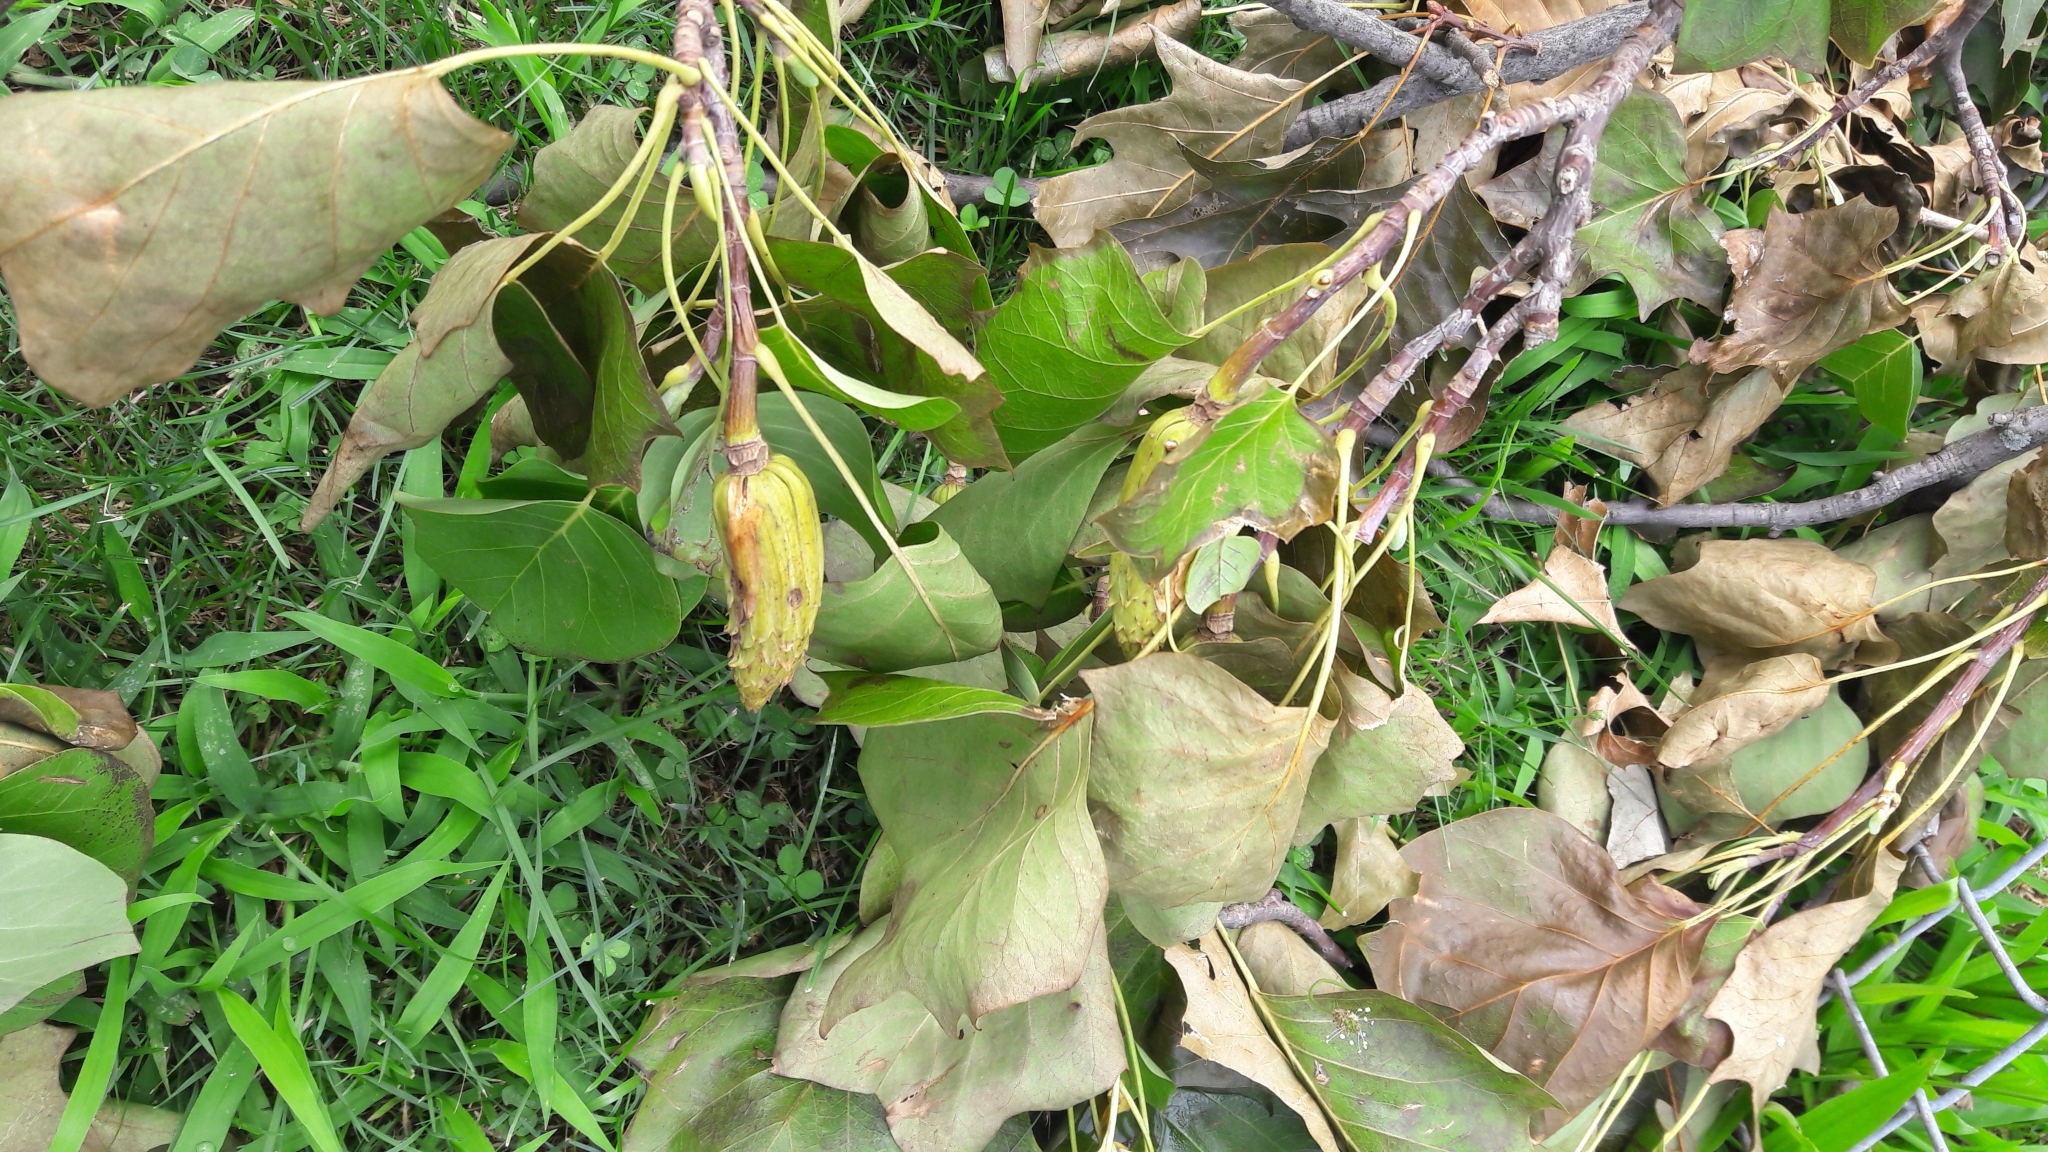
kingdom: Plantae
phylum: Tracheophyta
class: Magnoliopsida
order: Magnoliales
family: Magnoliaceae
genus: Liriodendron
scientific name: Liriodendron tulipifera
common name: Tulip tree
